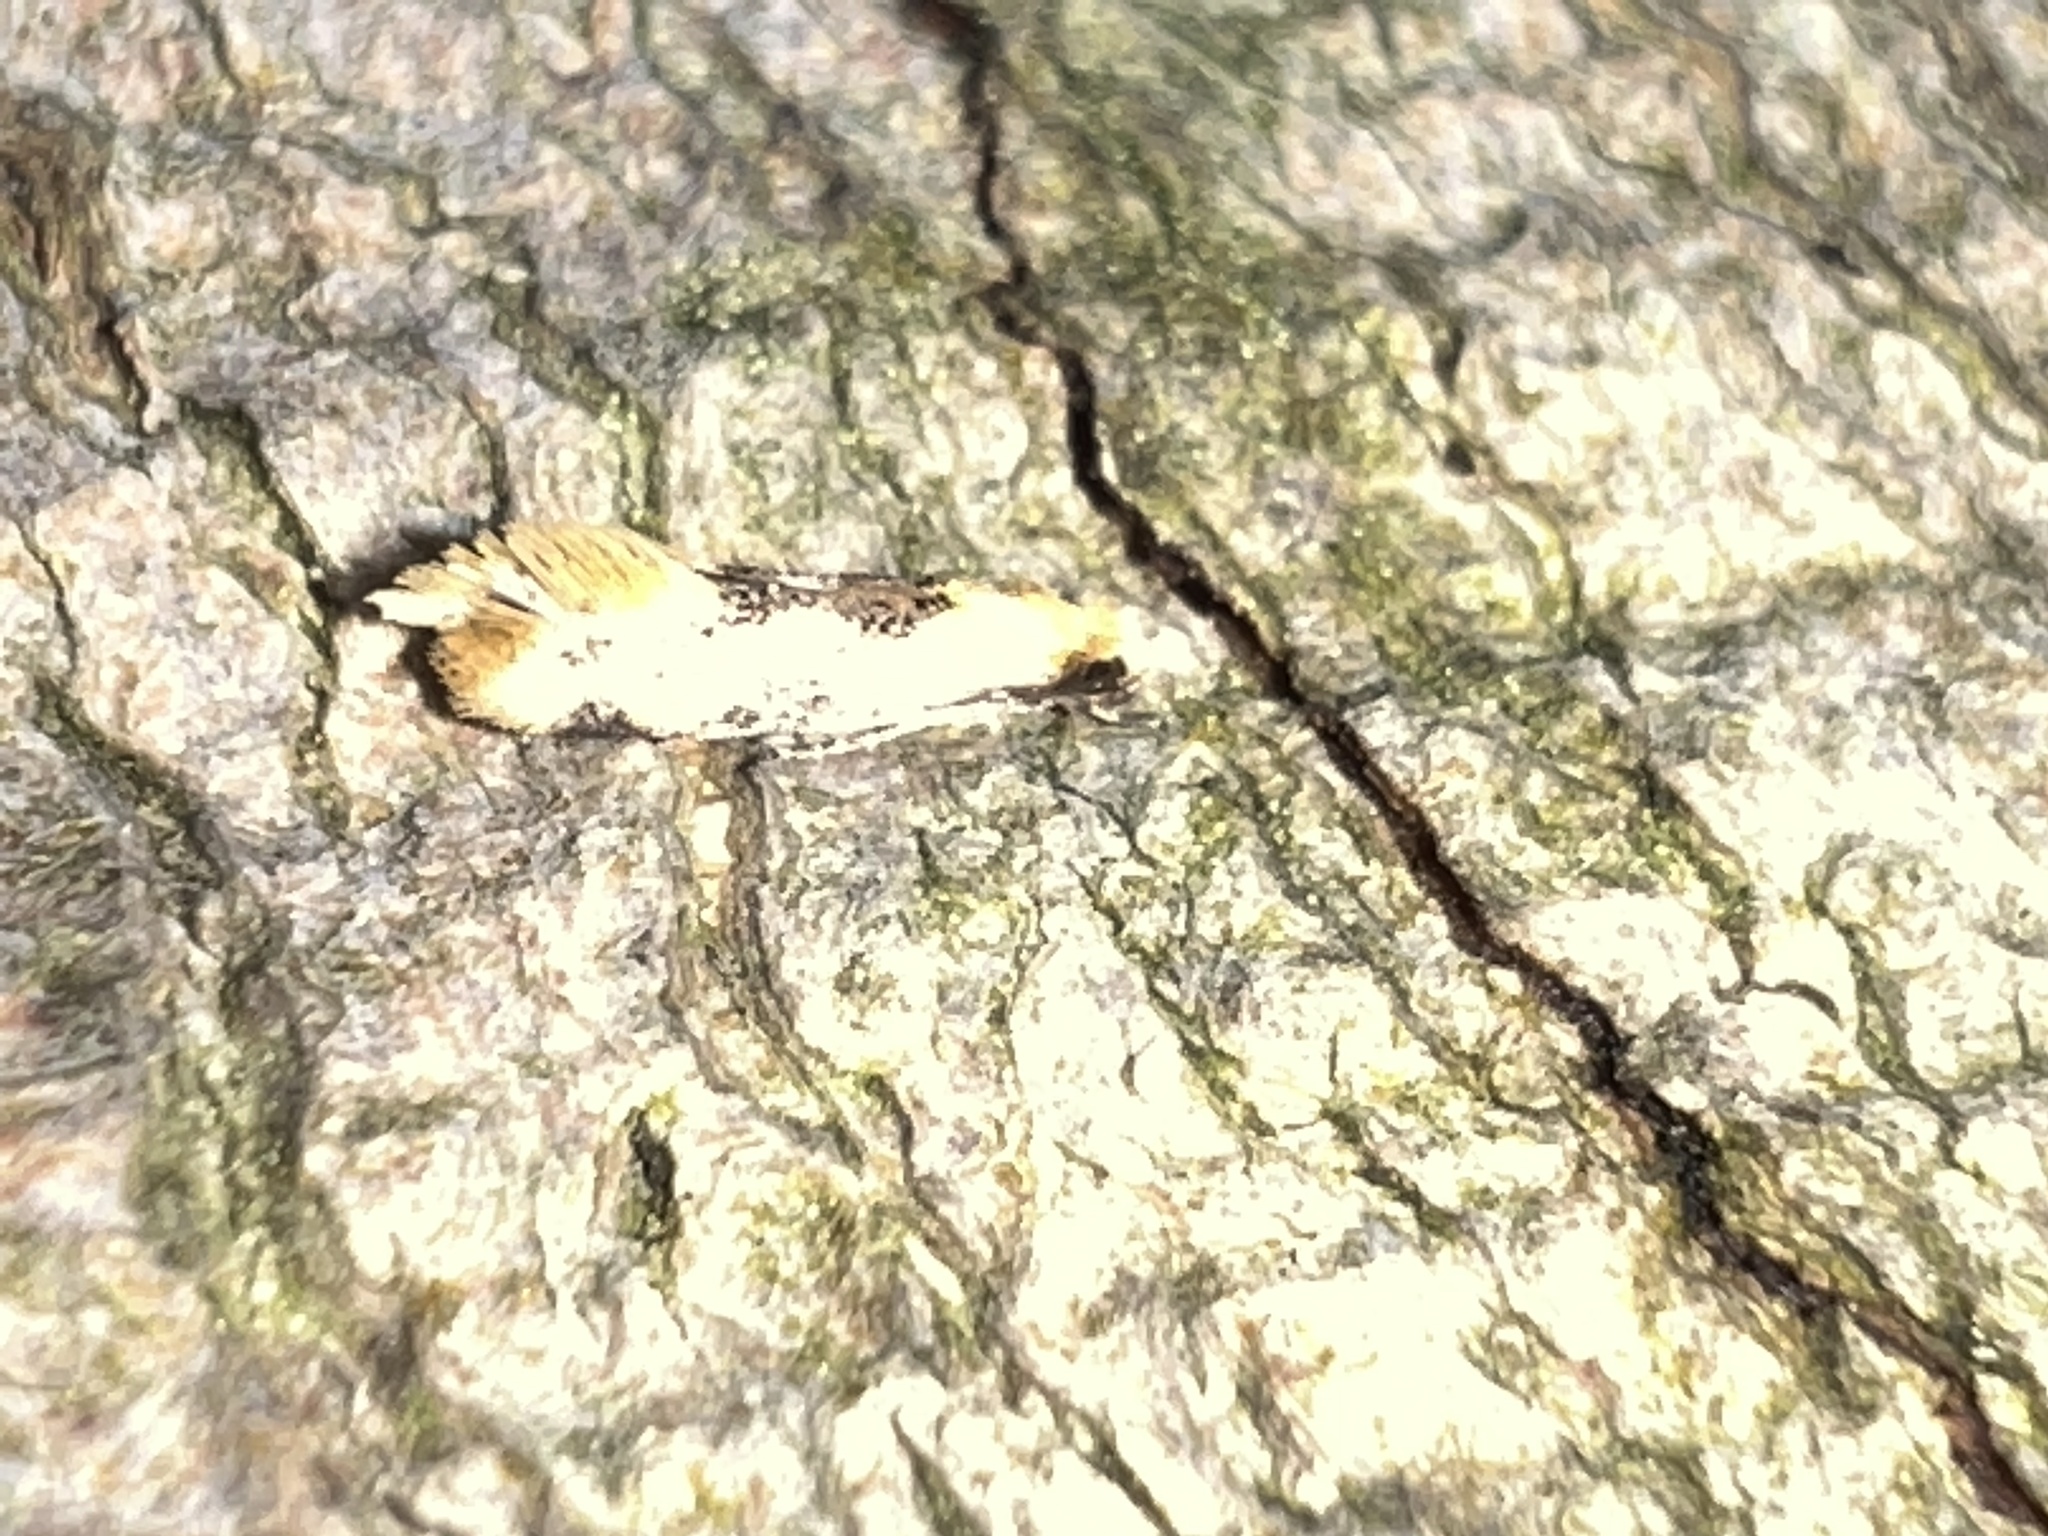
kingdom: Animalia
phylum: Arthropoda
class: Insecta
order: Lepidoptera
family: Meessiidae
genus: Hybroma
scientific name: Hybroma servulella
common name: Yellow wave moth
